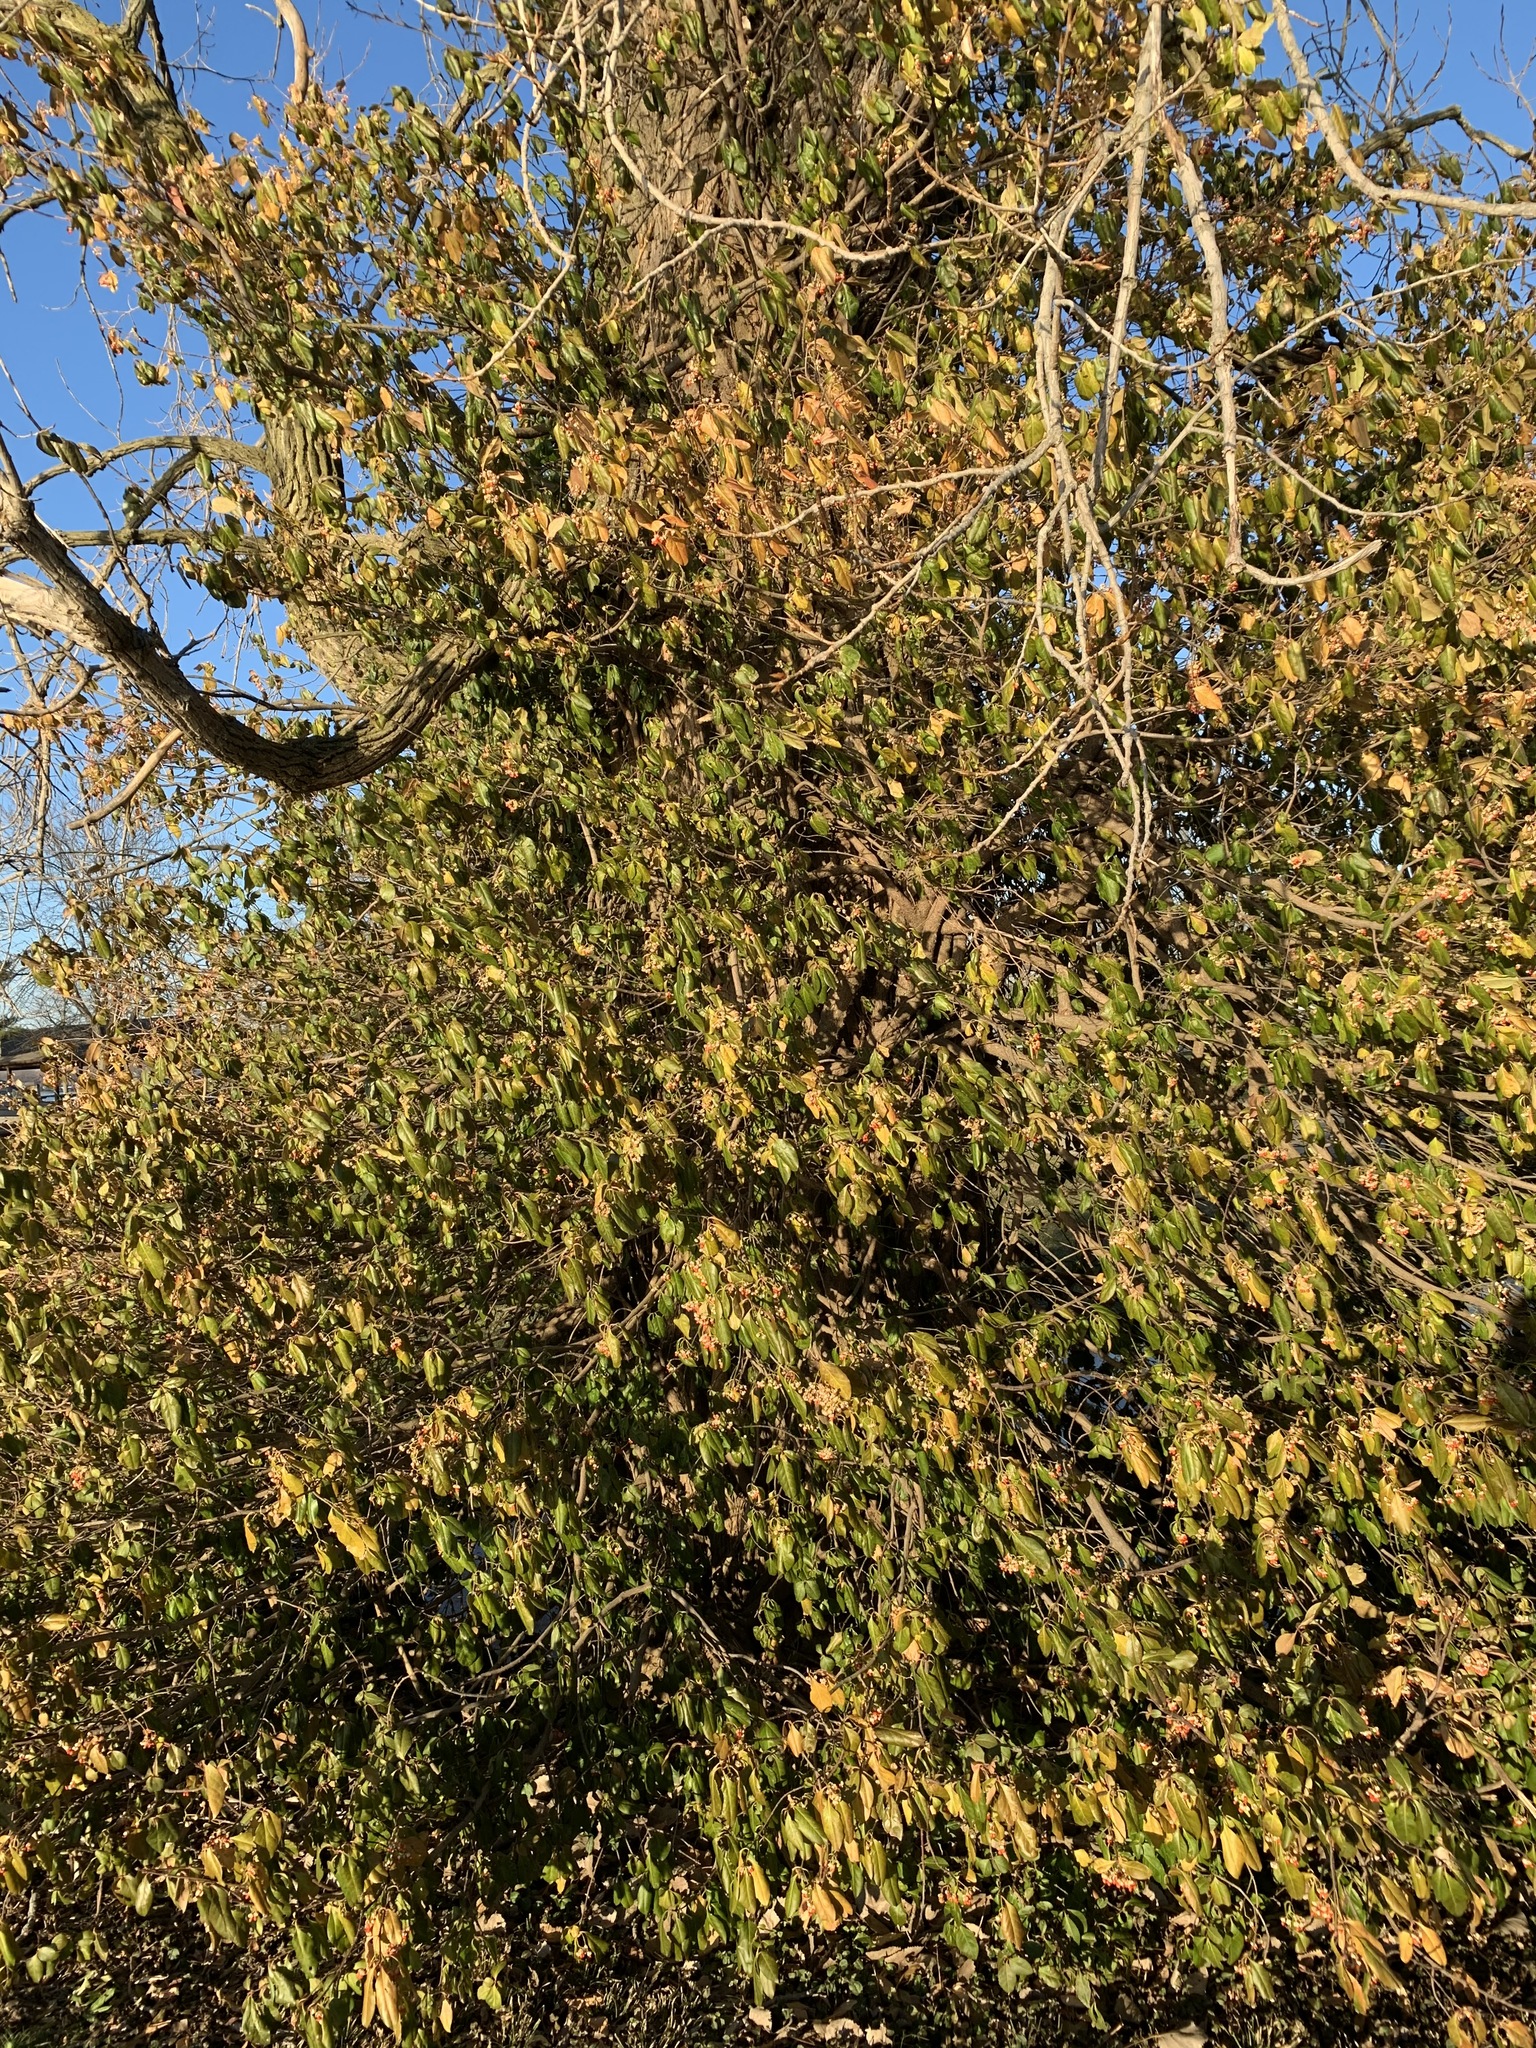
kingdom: Plantae
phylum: Tracheophyta
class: Magnoliopsida
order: Celastrales
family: Celastraceae
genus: Euonymus
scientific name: Euonymus fortunei
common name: Climbing euonymus
